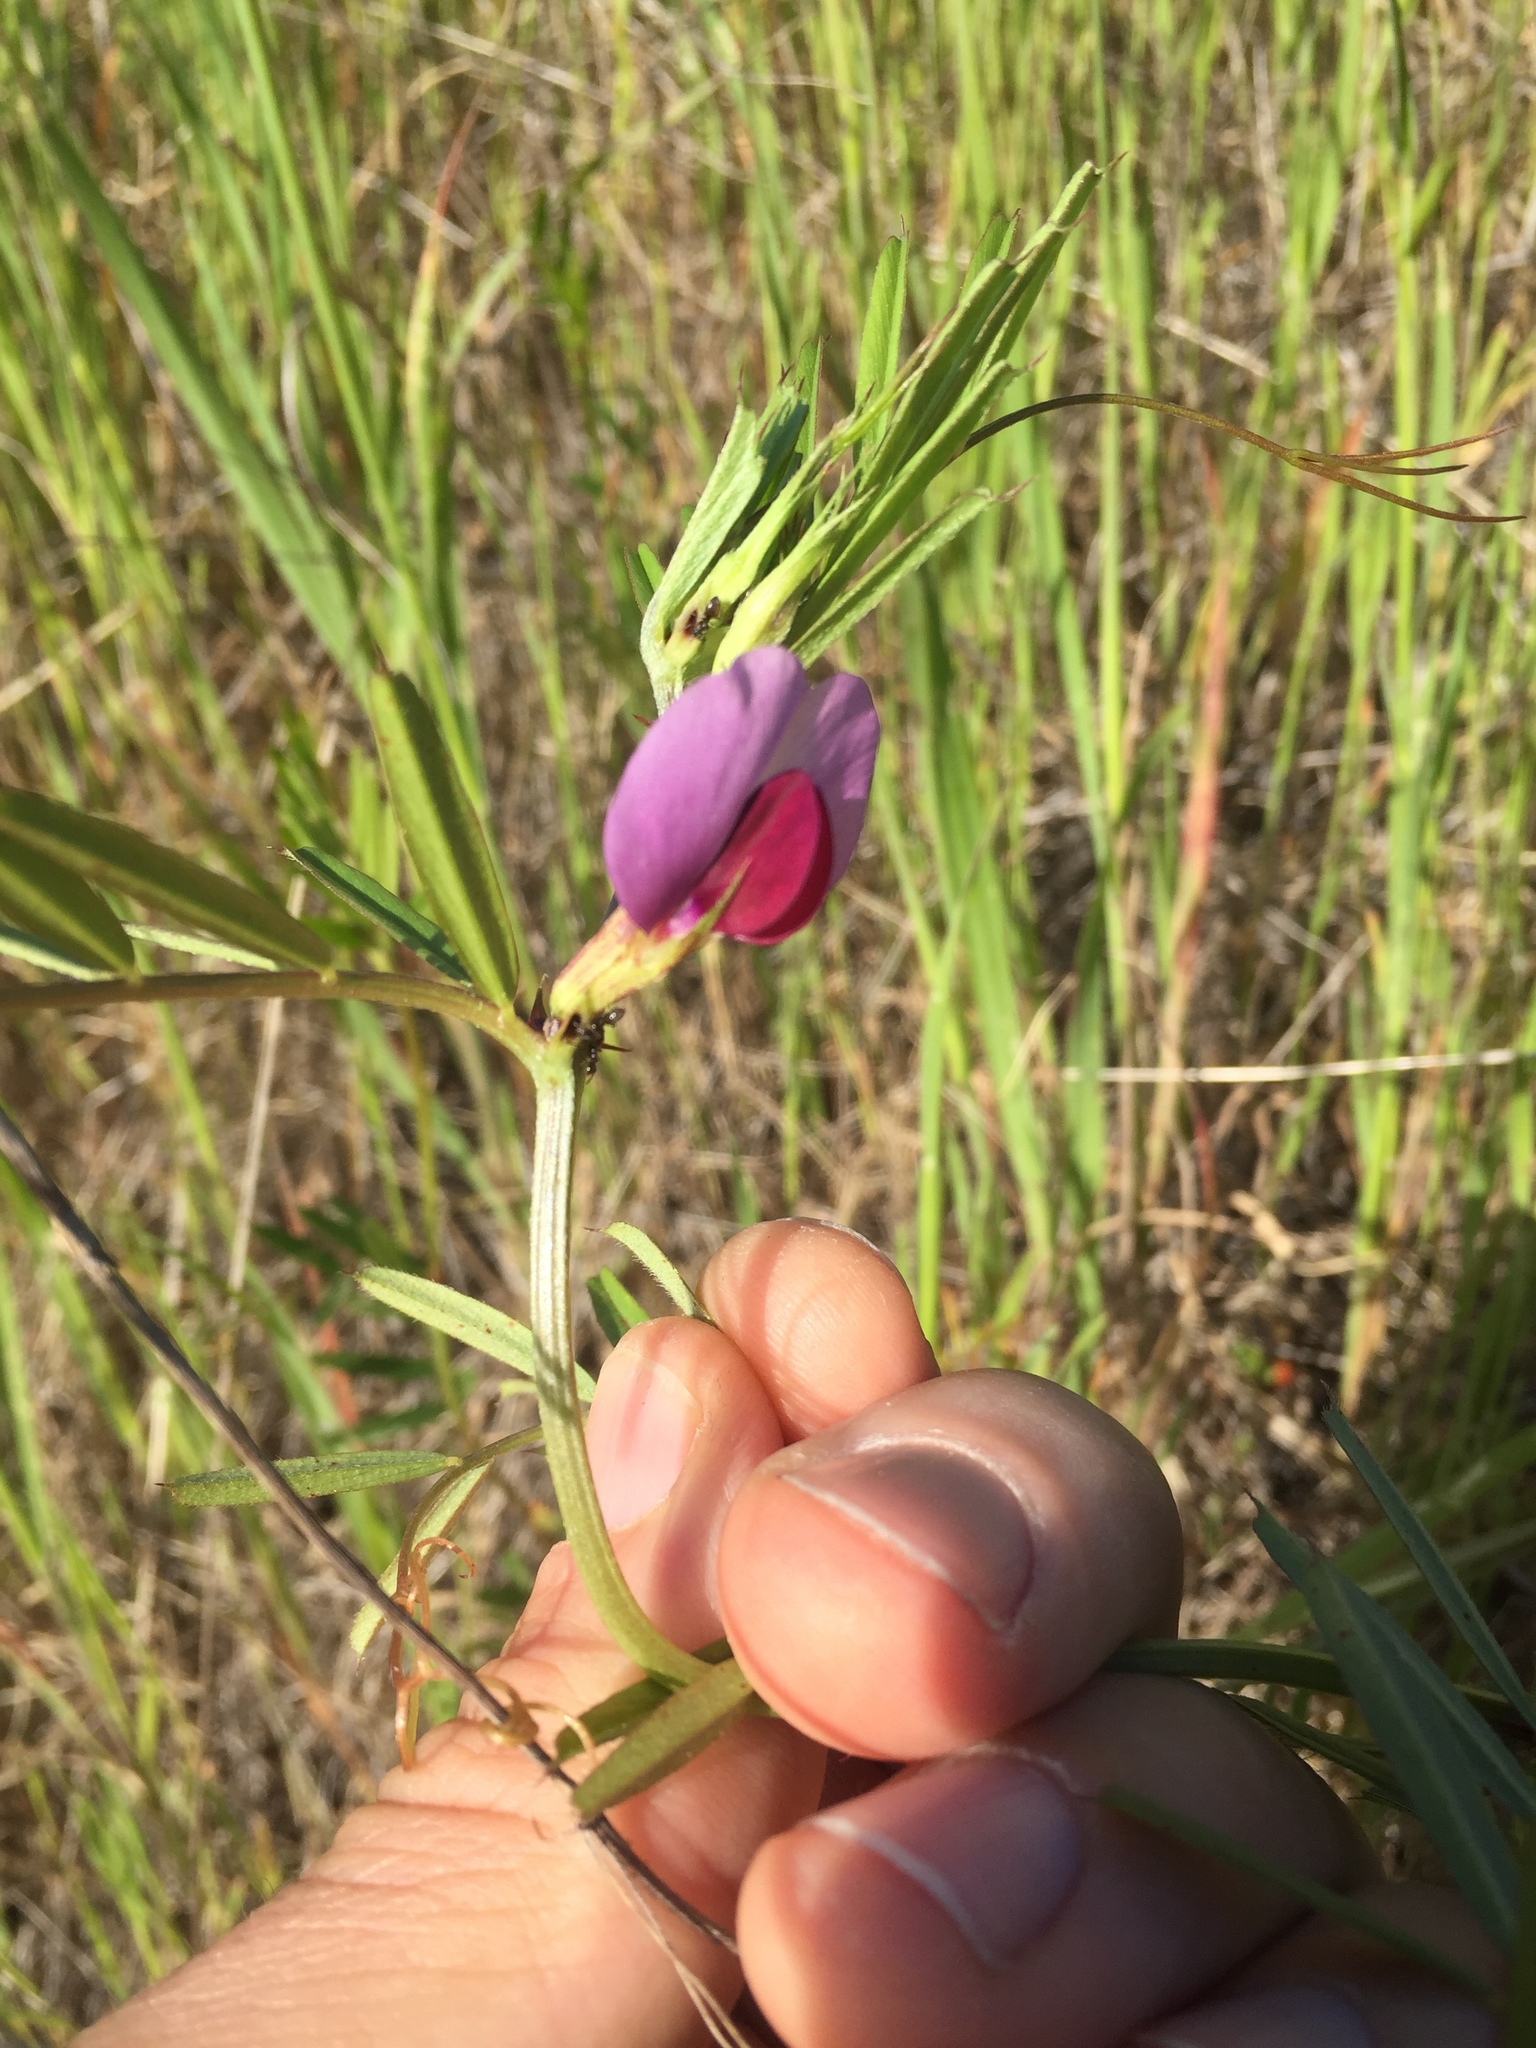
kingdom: Plantae
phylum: Tracheophyta
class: Magnoliopsida
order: Fabales
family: Fabaceae
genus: Vicia
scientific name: Vicia sativa
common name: Garden vetch
